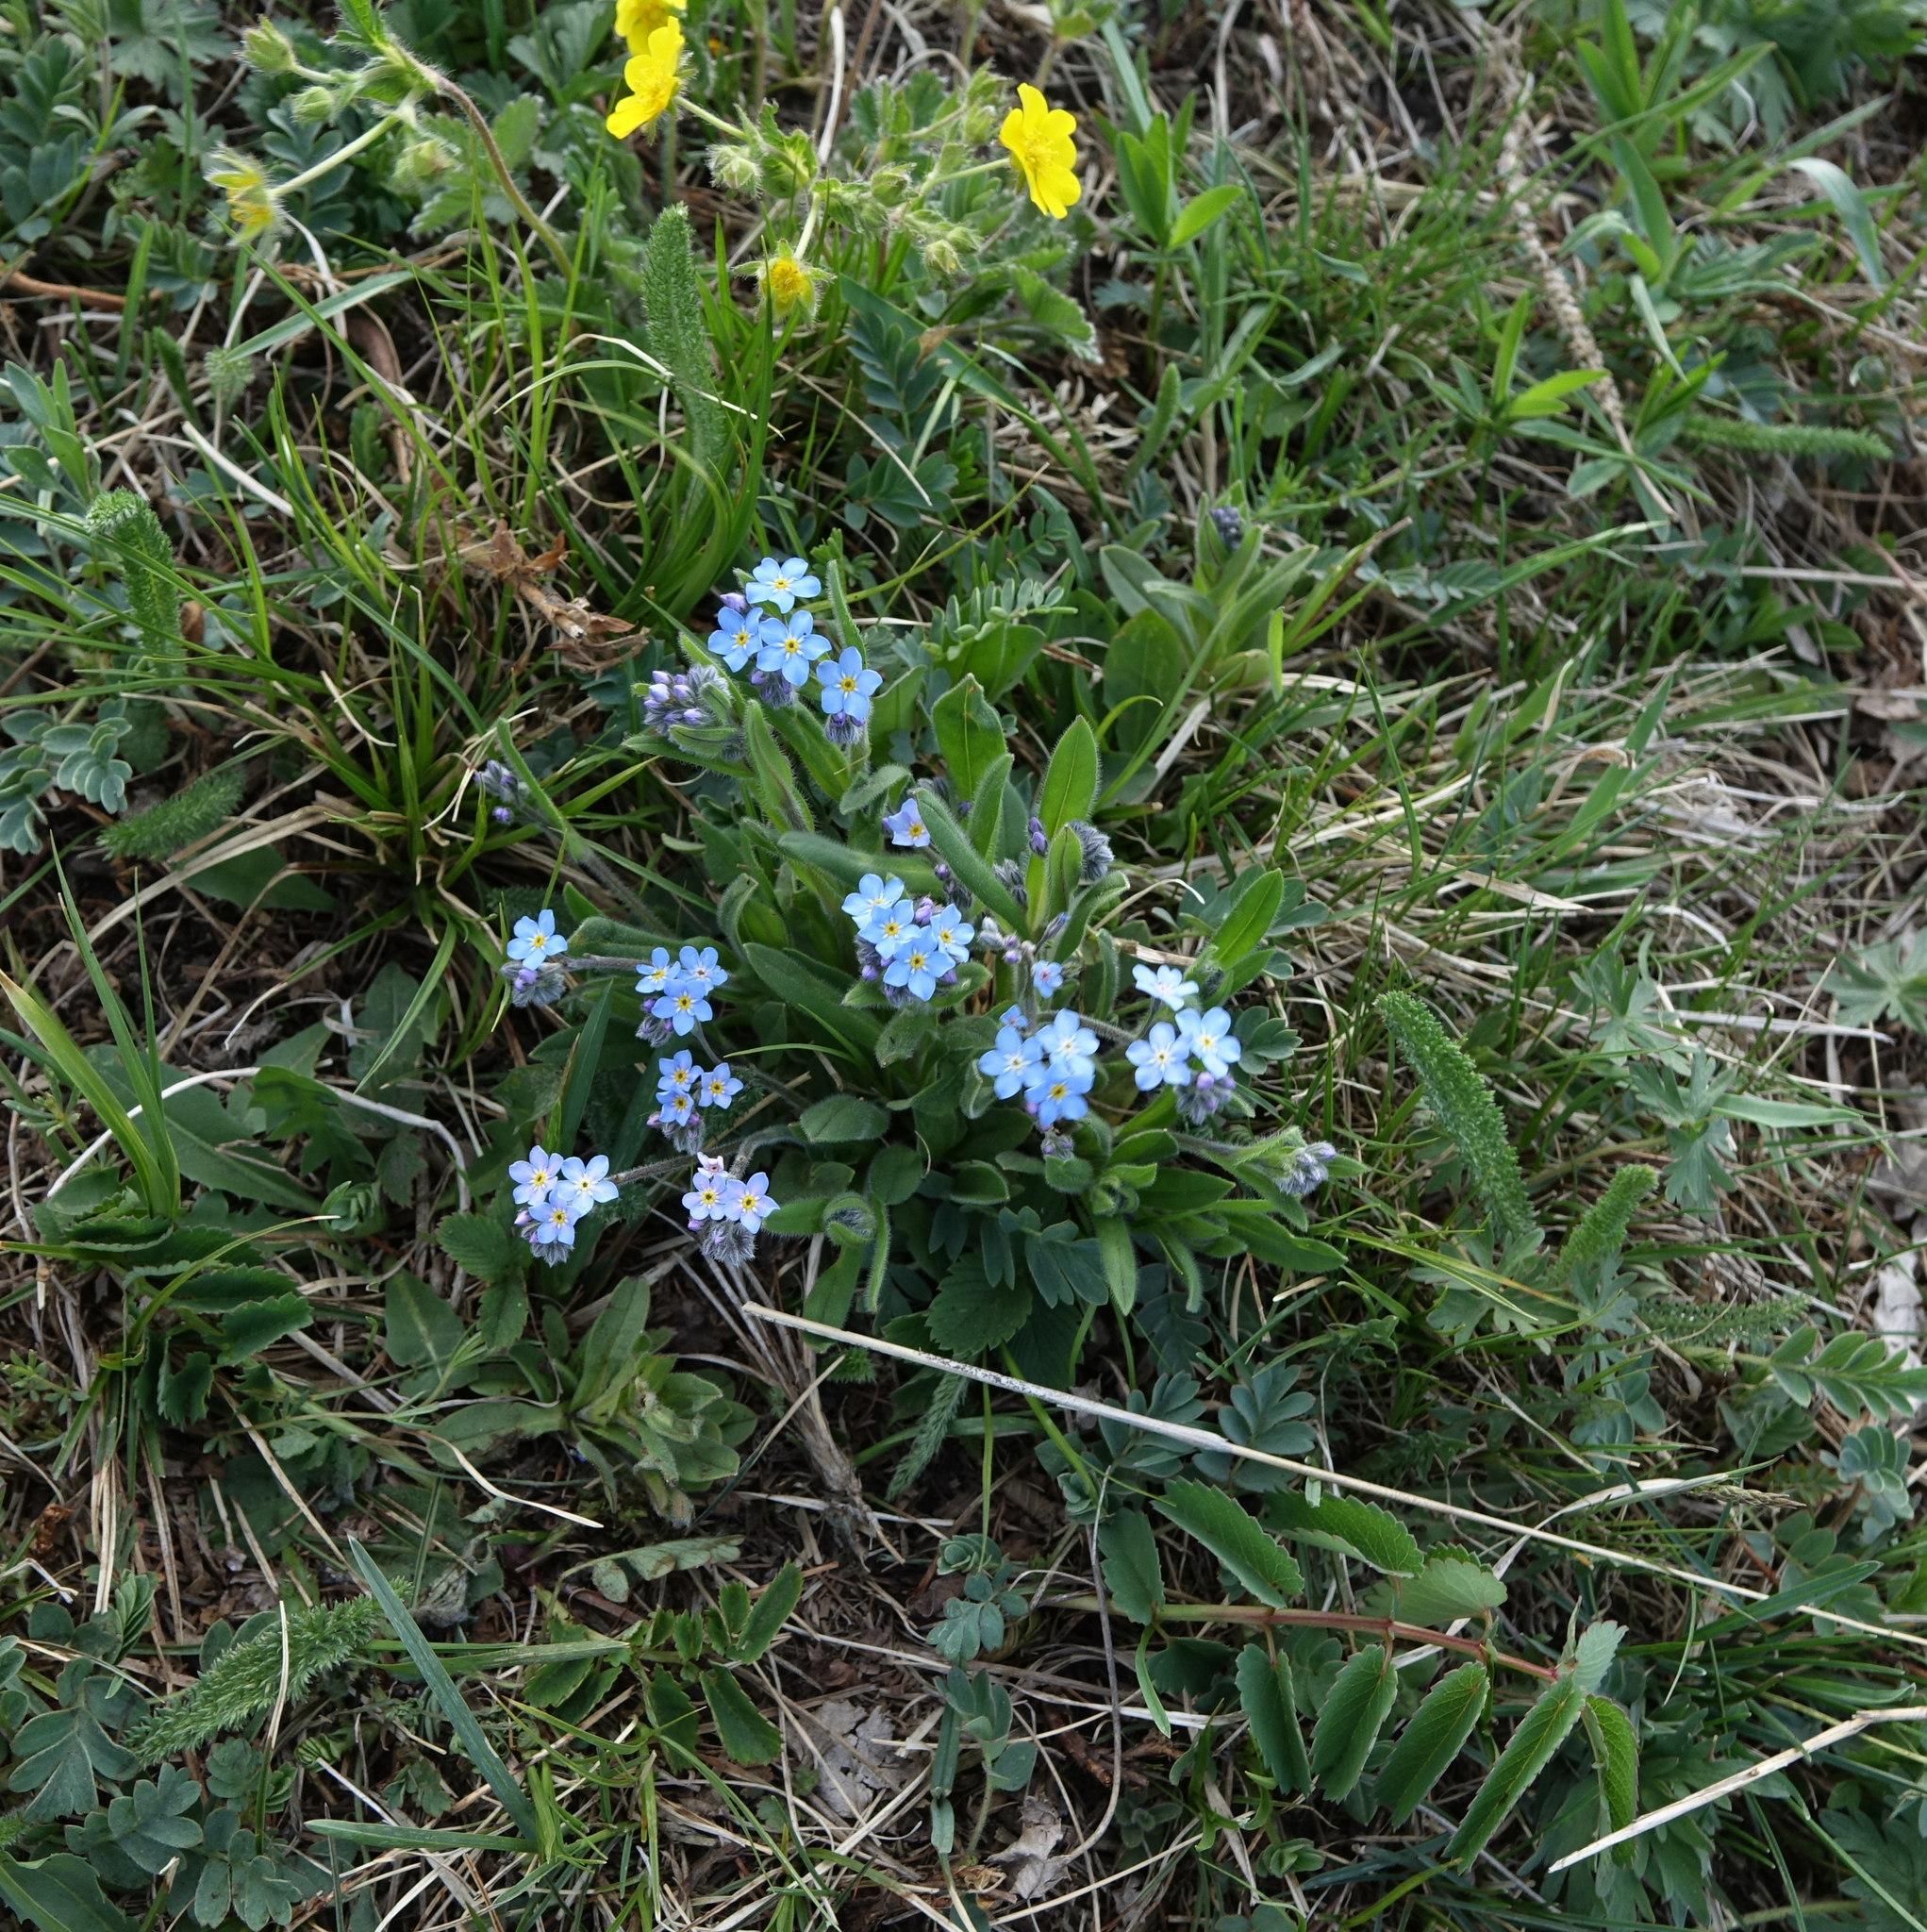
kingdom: Plantae
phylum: Tracheophyta
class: Magnoliopsida
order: Boraginales
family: Boraginaceae
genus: Myosotis
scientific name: Myosotis imitata
